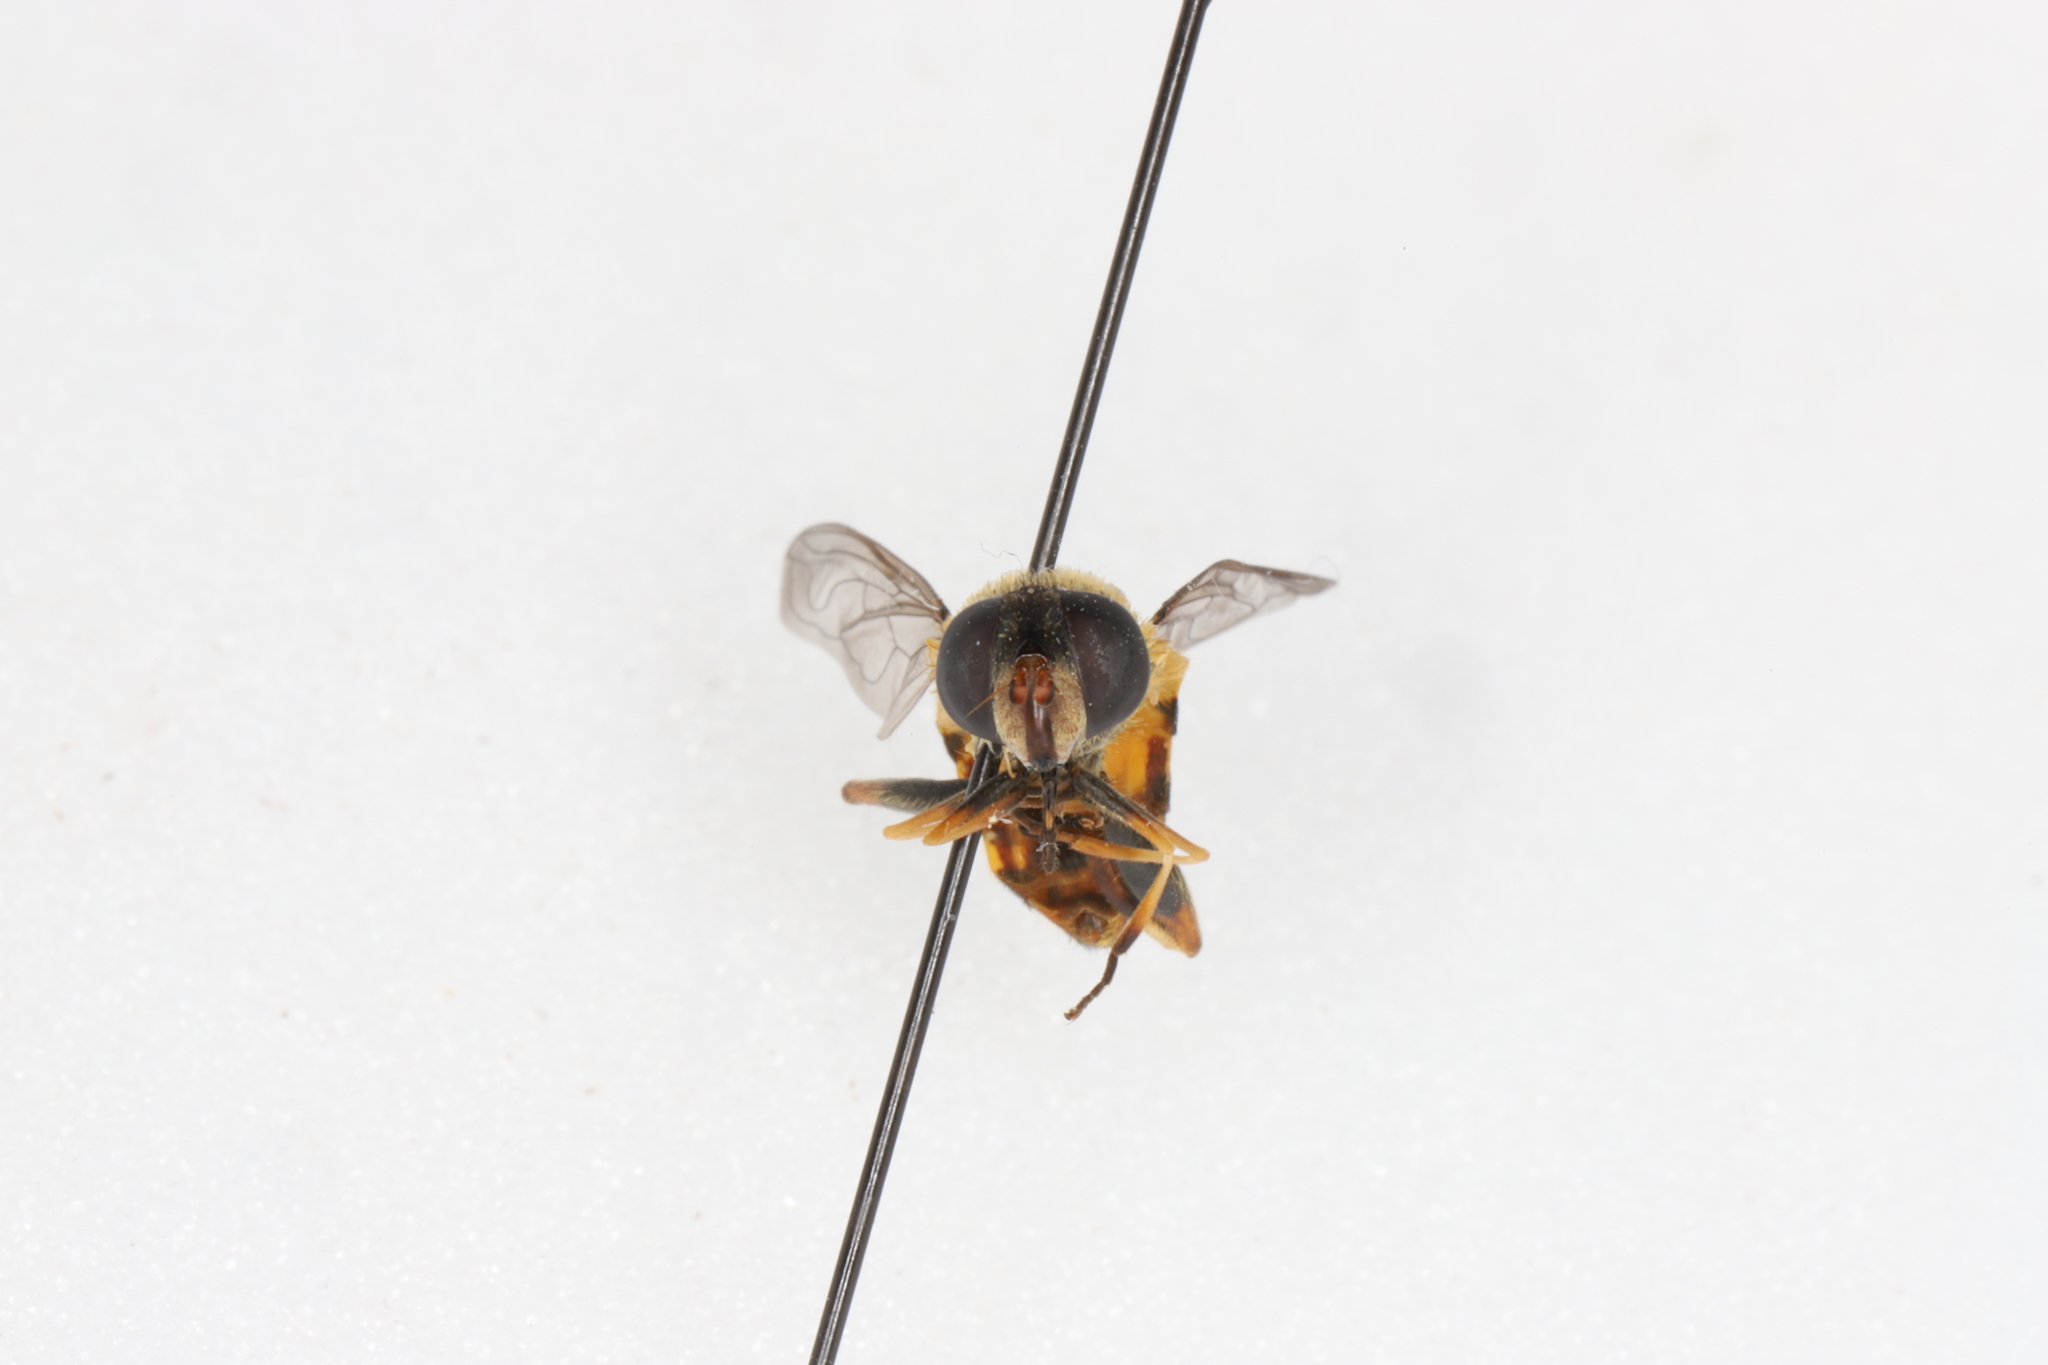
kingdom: Animalia
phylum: Arthropoda
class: Insecta
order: Diptera
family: Syrphidae
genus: Helophilus
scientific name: Helophilus fasciatus
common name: Narrow-headed marsh fly
